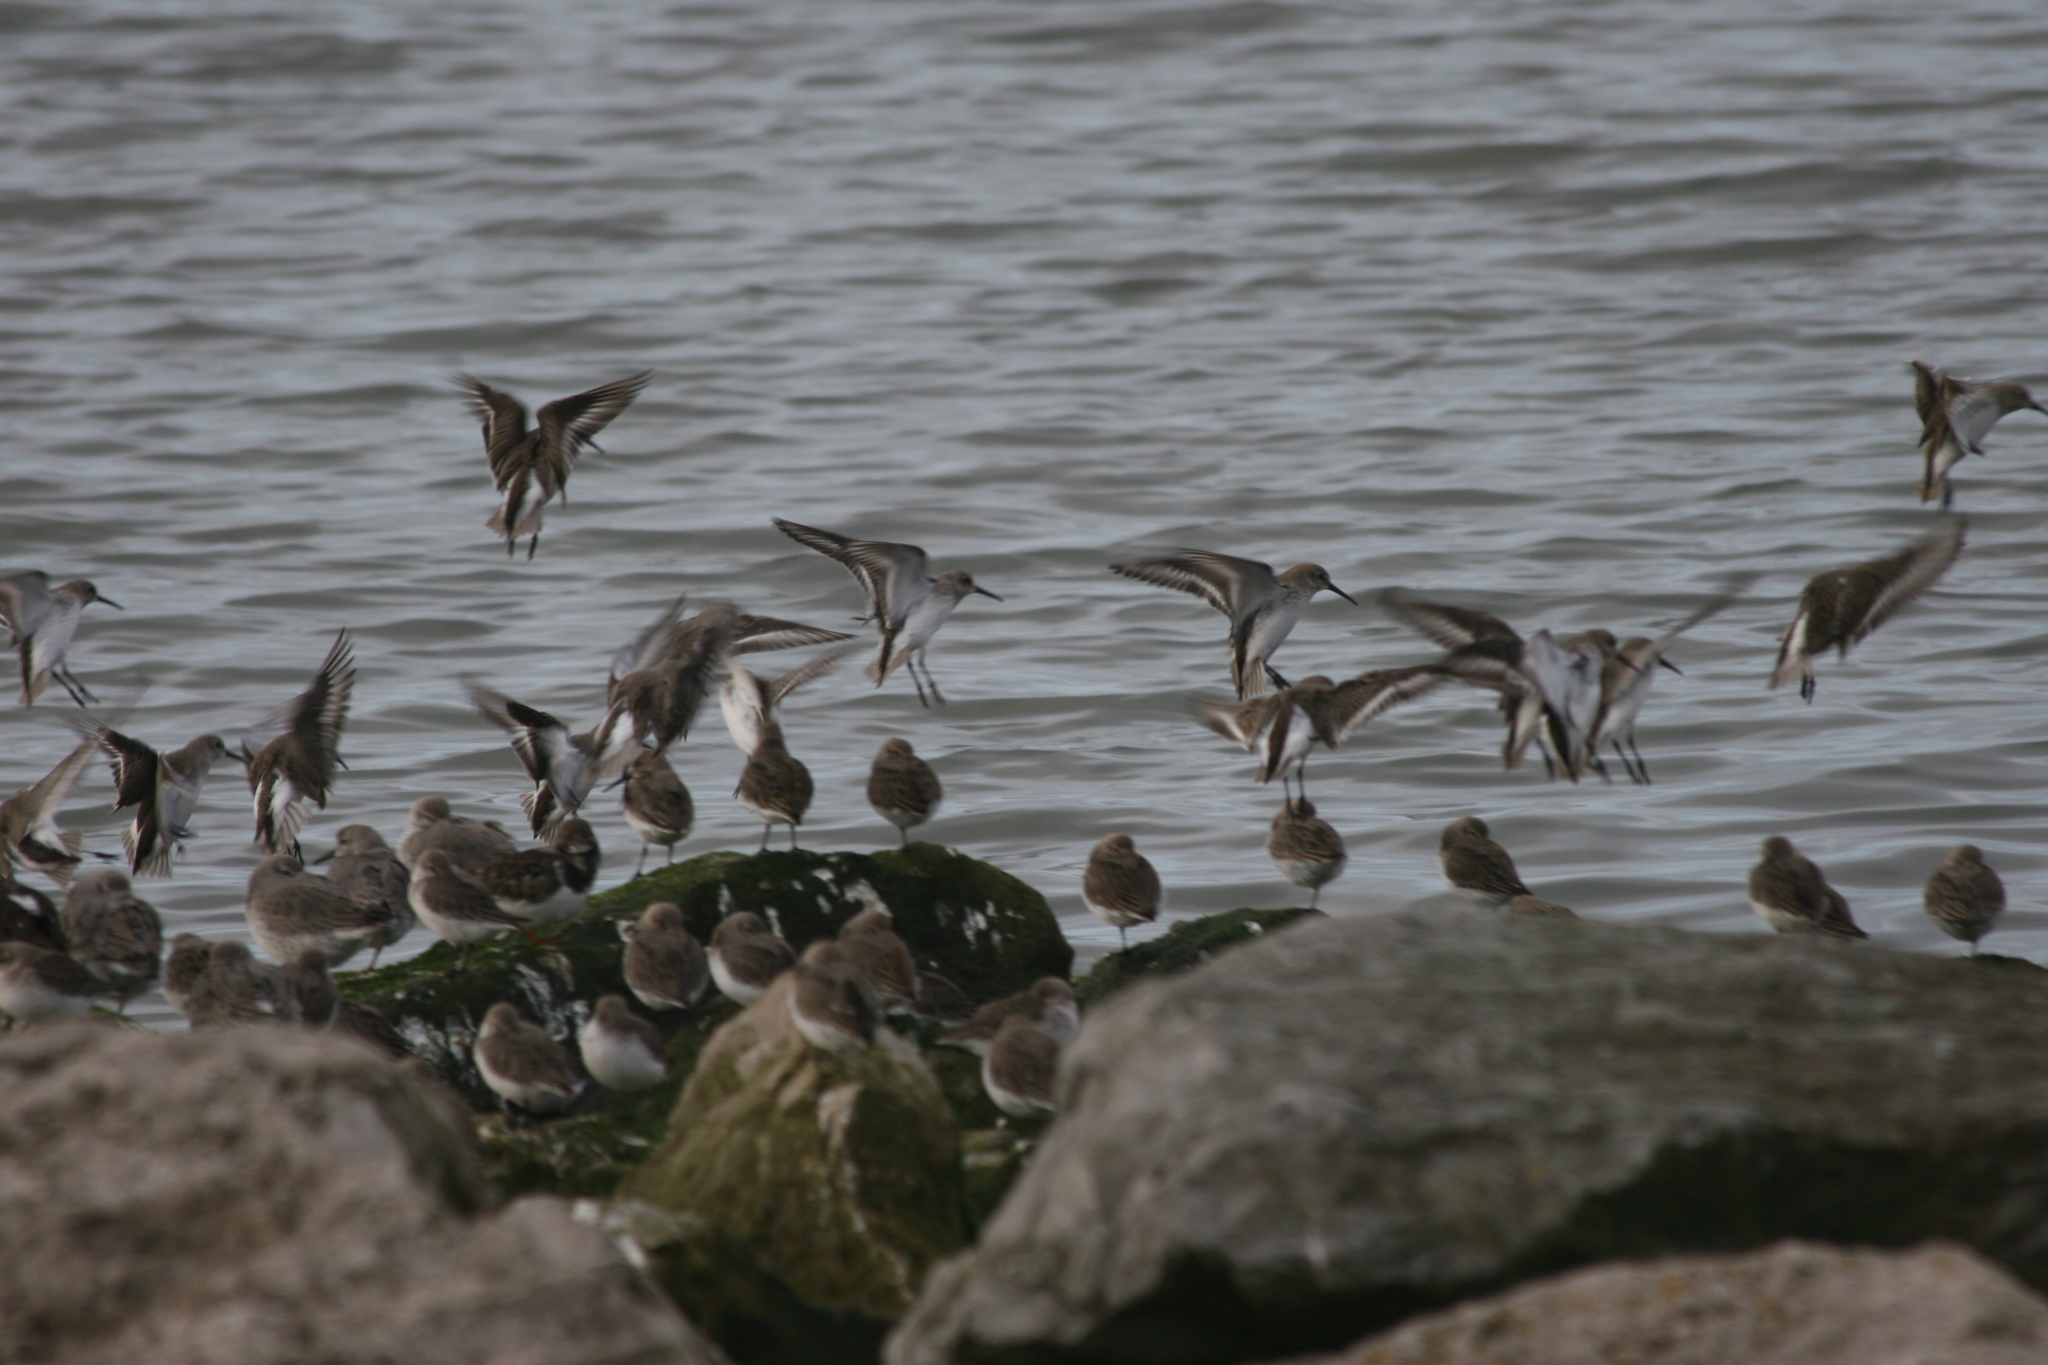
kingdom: Animalia
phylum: Chordata
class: Aves
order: Charadriiformes
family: Scolopacidae
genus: Calidris
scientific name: Calidris alpina
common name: Dunlin
